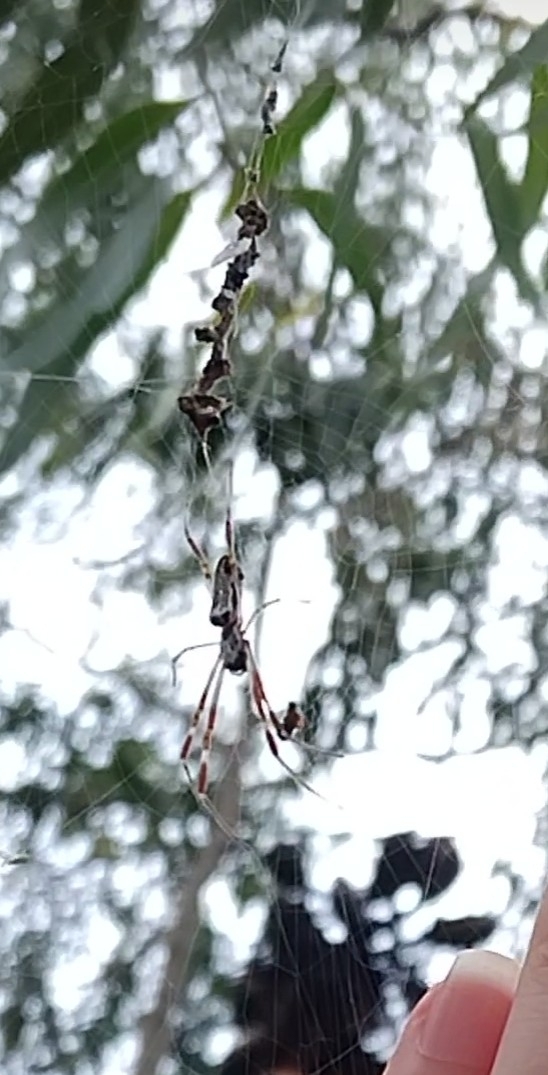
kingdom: Animalia
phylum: Arthropoda
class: Arachnida
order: Araneae
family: Araneidae
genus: Trichonephila
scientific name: Trichonephila edulis
